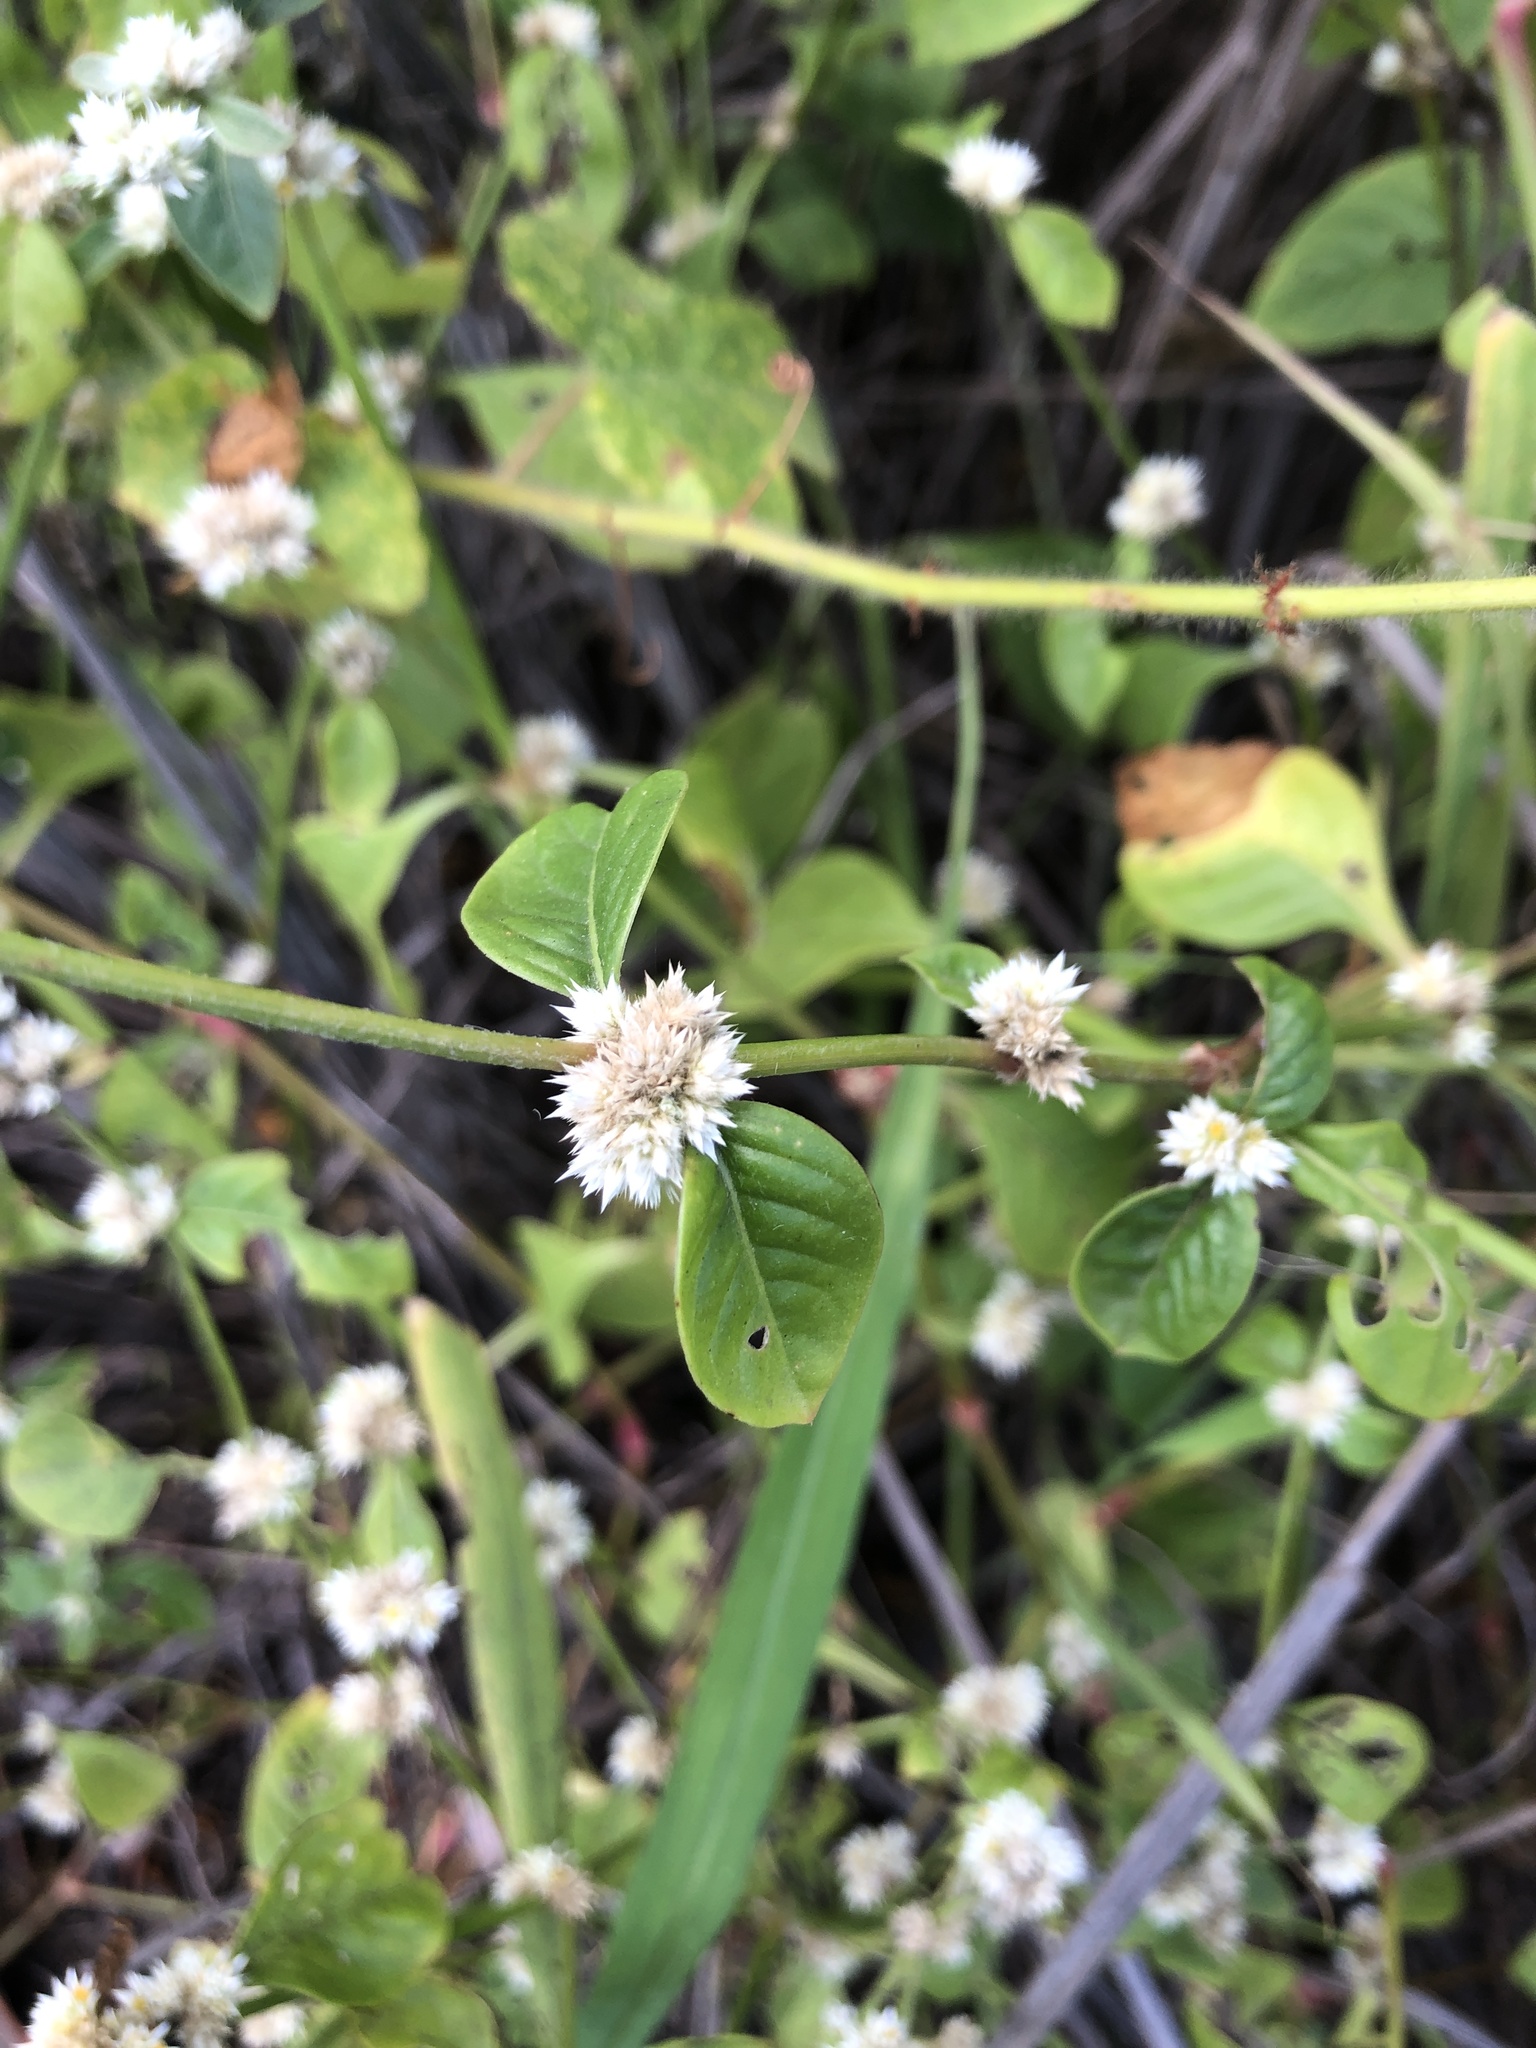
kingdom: Plantae
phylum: Tracheophyta
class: Magnoliopsida
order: Caryophyllales
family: Amaranthaceae
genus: Alternanthera
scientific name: Alternanthera ficoidea
